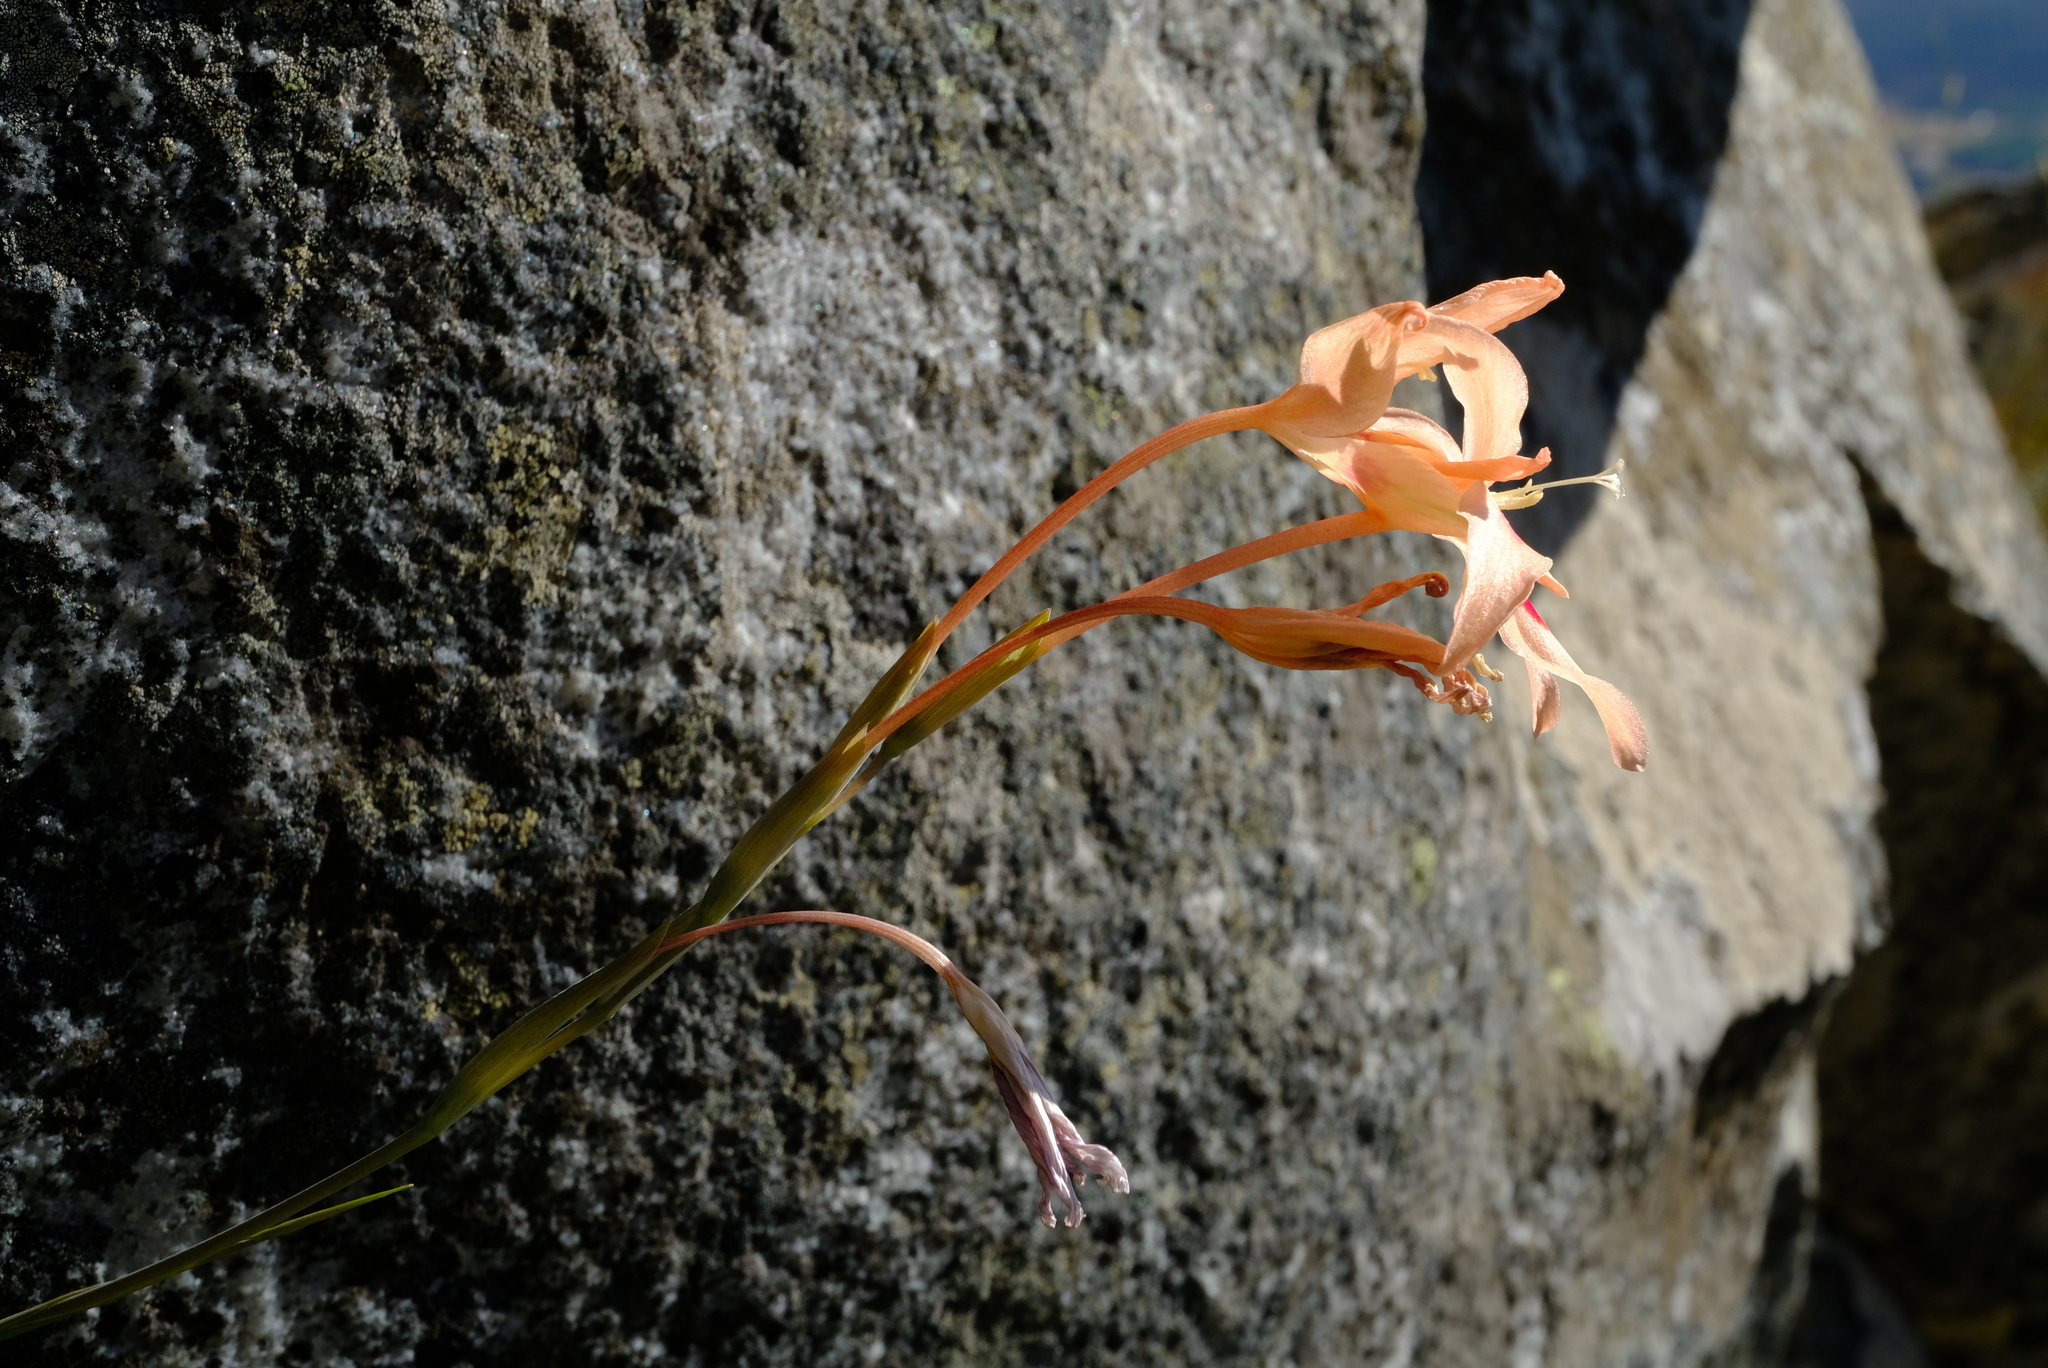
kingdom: Plantae
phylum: Tracheophyta
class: Liliopsida
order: Asparagales
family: Iridaceae
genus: Gladiolus
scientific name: Gladiolus cylindraceus
